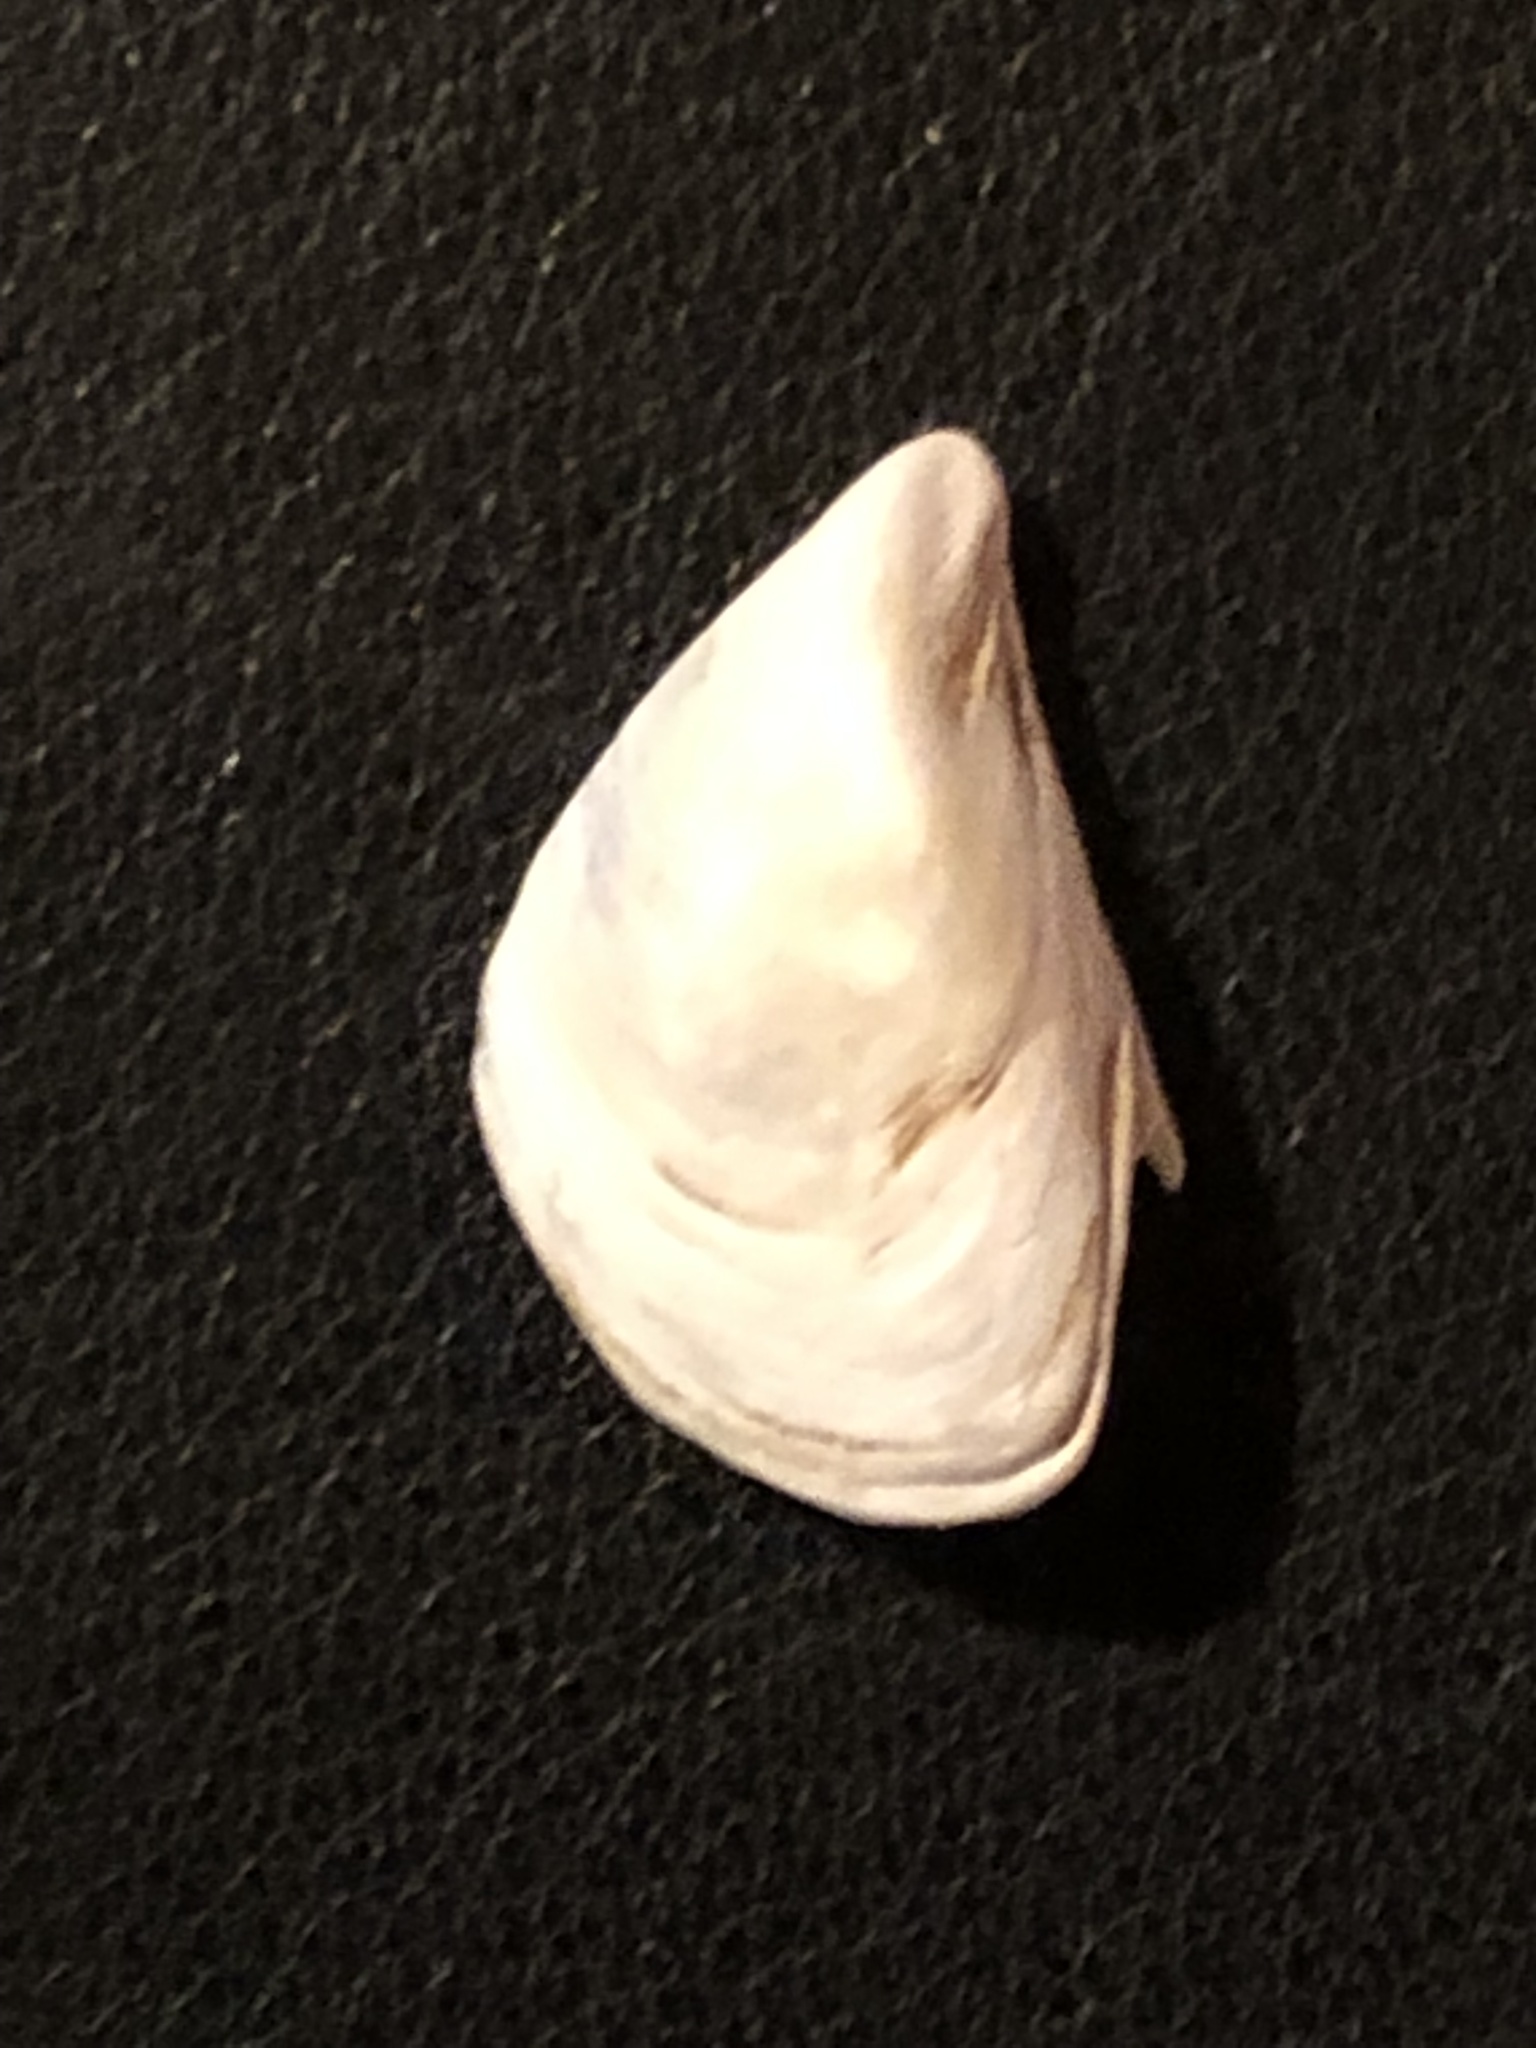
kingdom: Animalia
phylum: Mollusca
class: Bivalvia
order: Myida
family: Dreissenidae
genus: Dreissena
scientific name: Dreissena bugensis
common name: Quagga mussel
